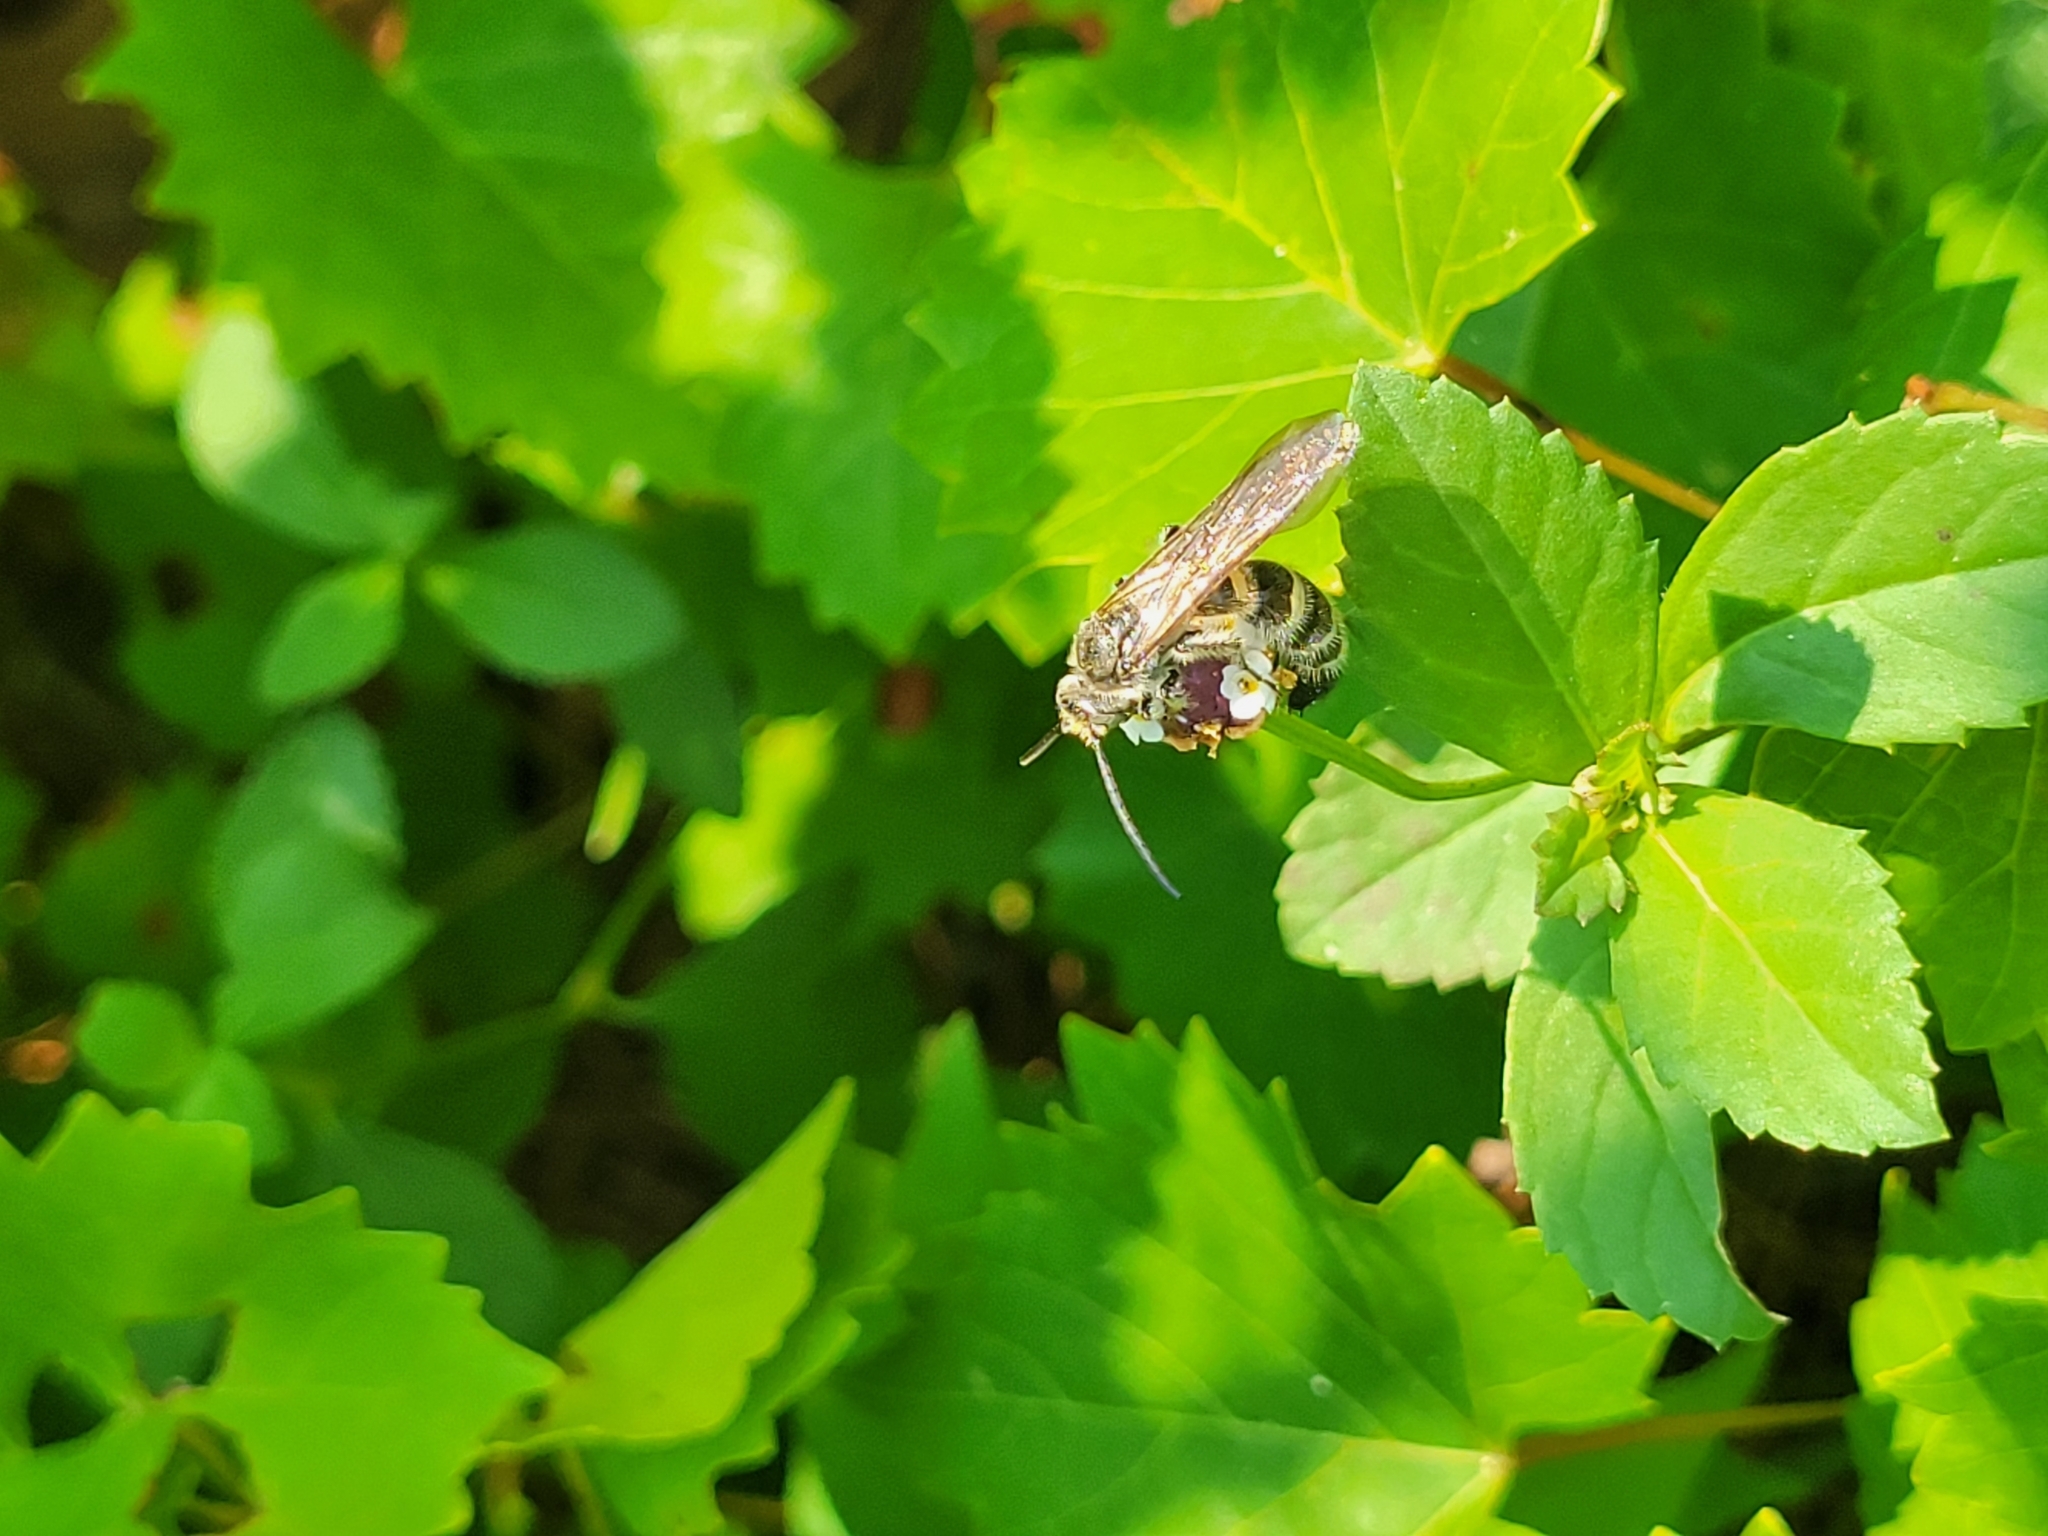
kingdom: Animalia
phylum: Arthropoda
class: Insecta
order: Hymenoptera
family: Scoliidae
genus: Dielis
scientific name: Dielis
